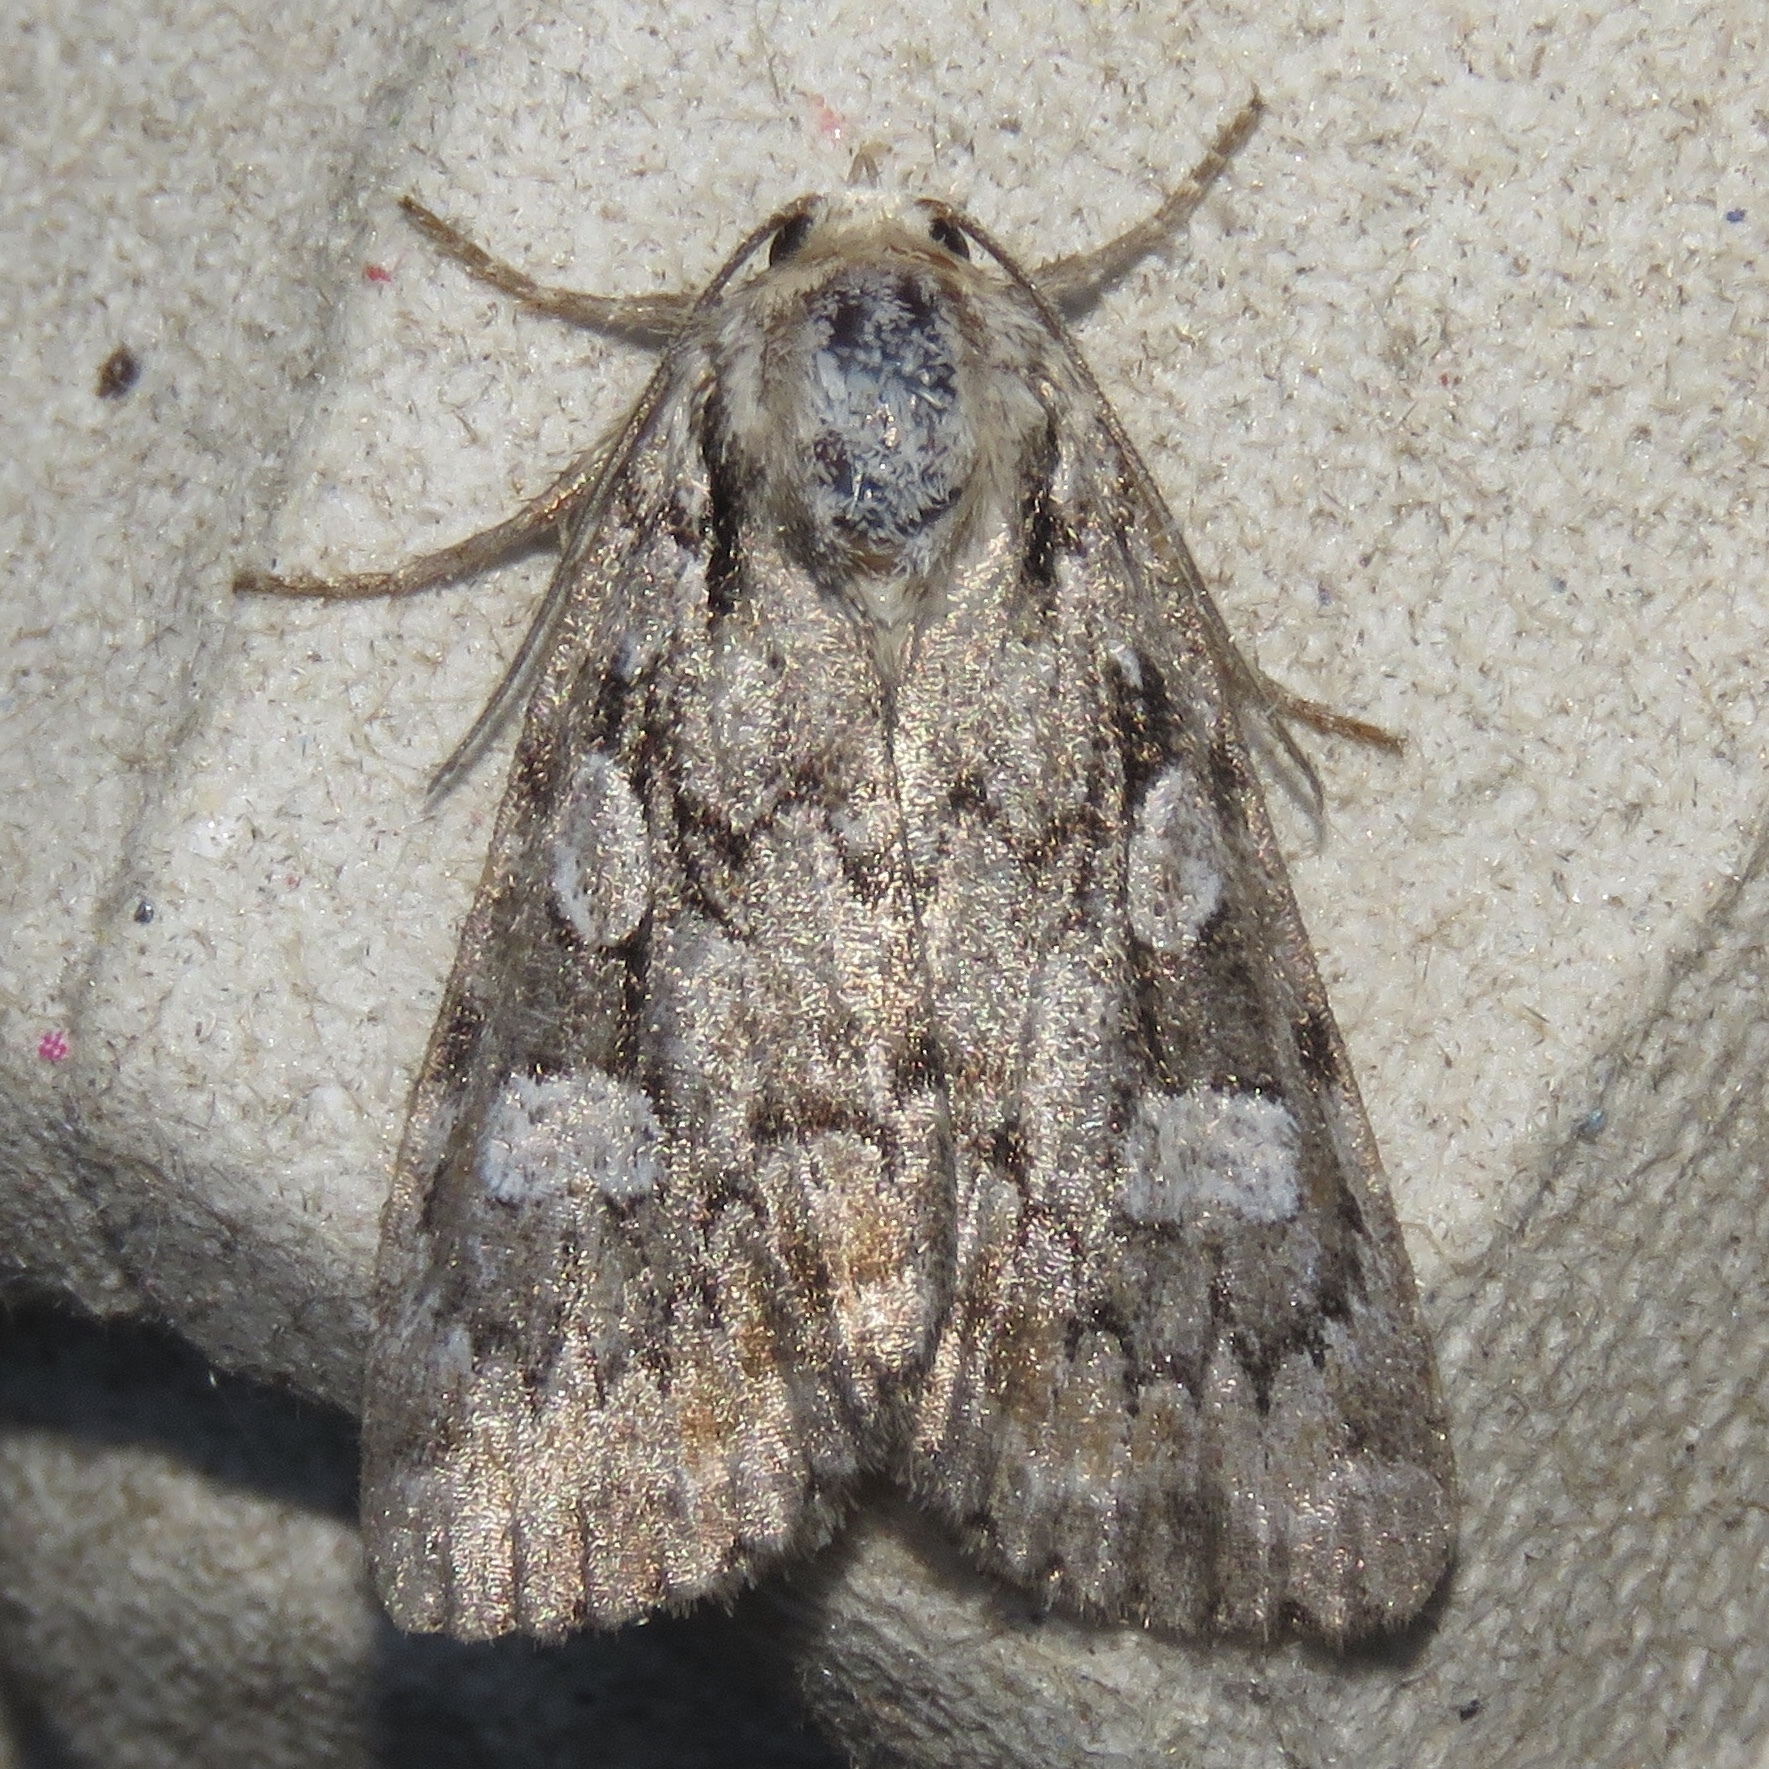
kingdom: Animalia
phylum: Arthropoda
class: Insecta
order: Lepidoptera
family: Noctuidae
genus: Aplectoides
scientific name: Aplectoides condita
